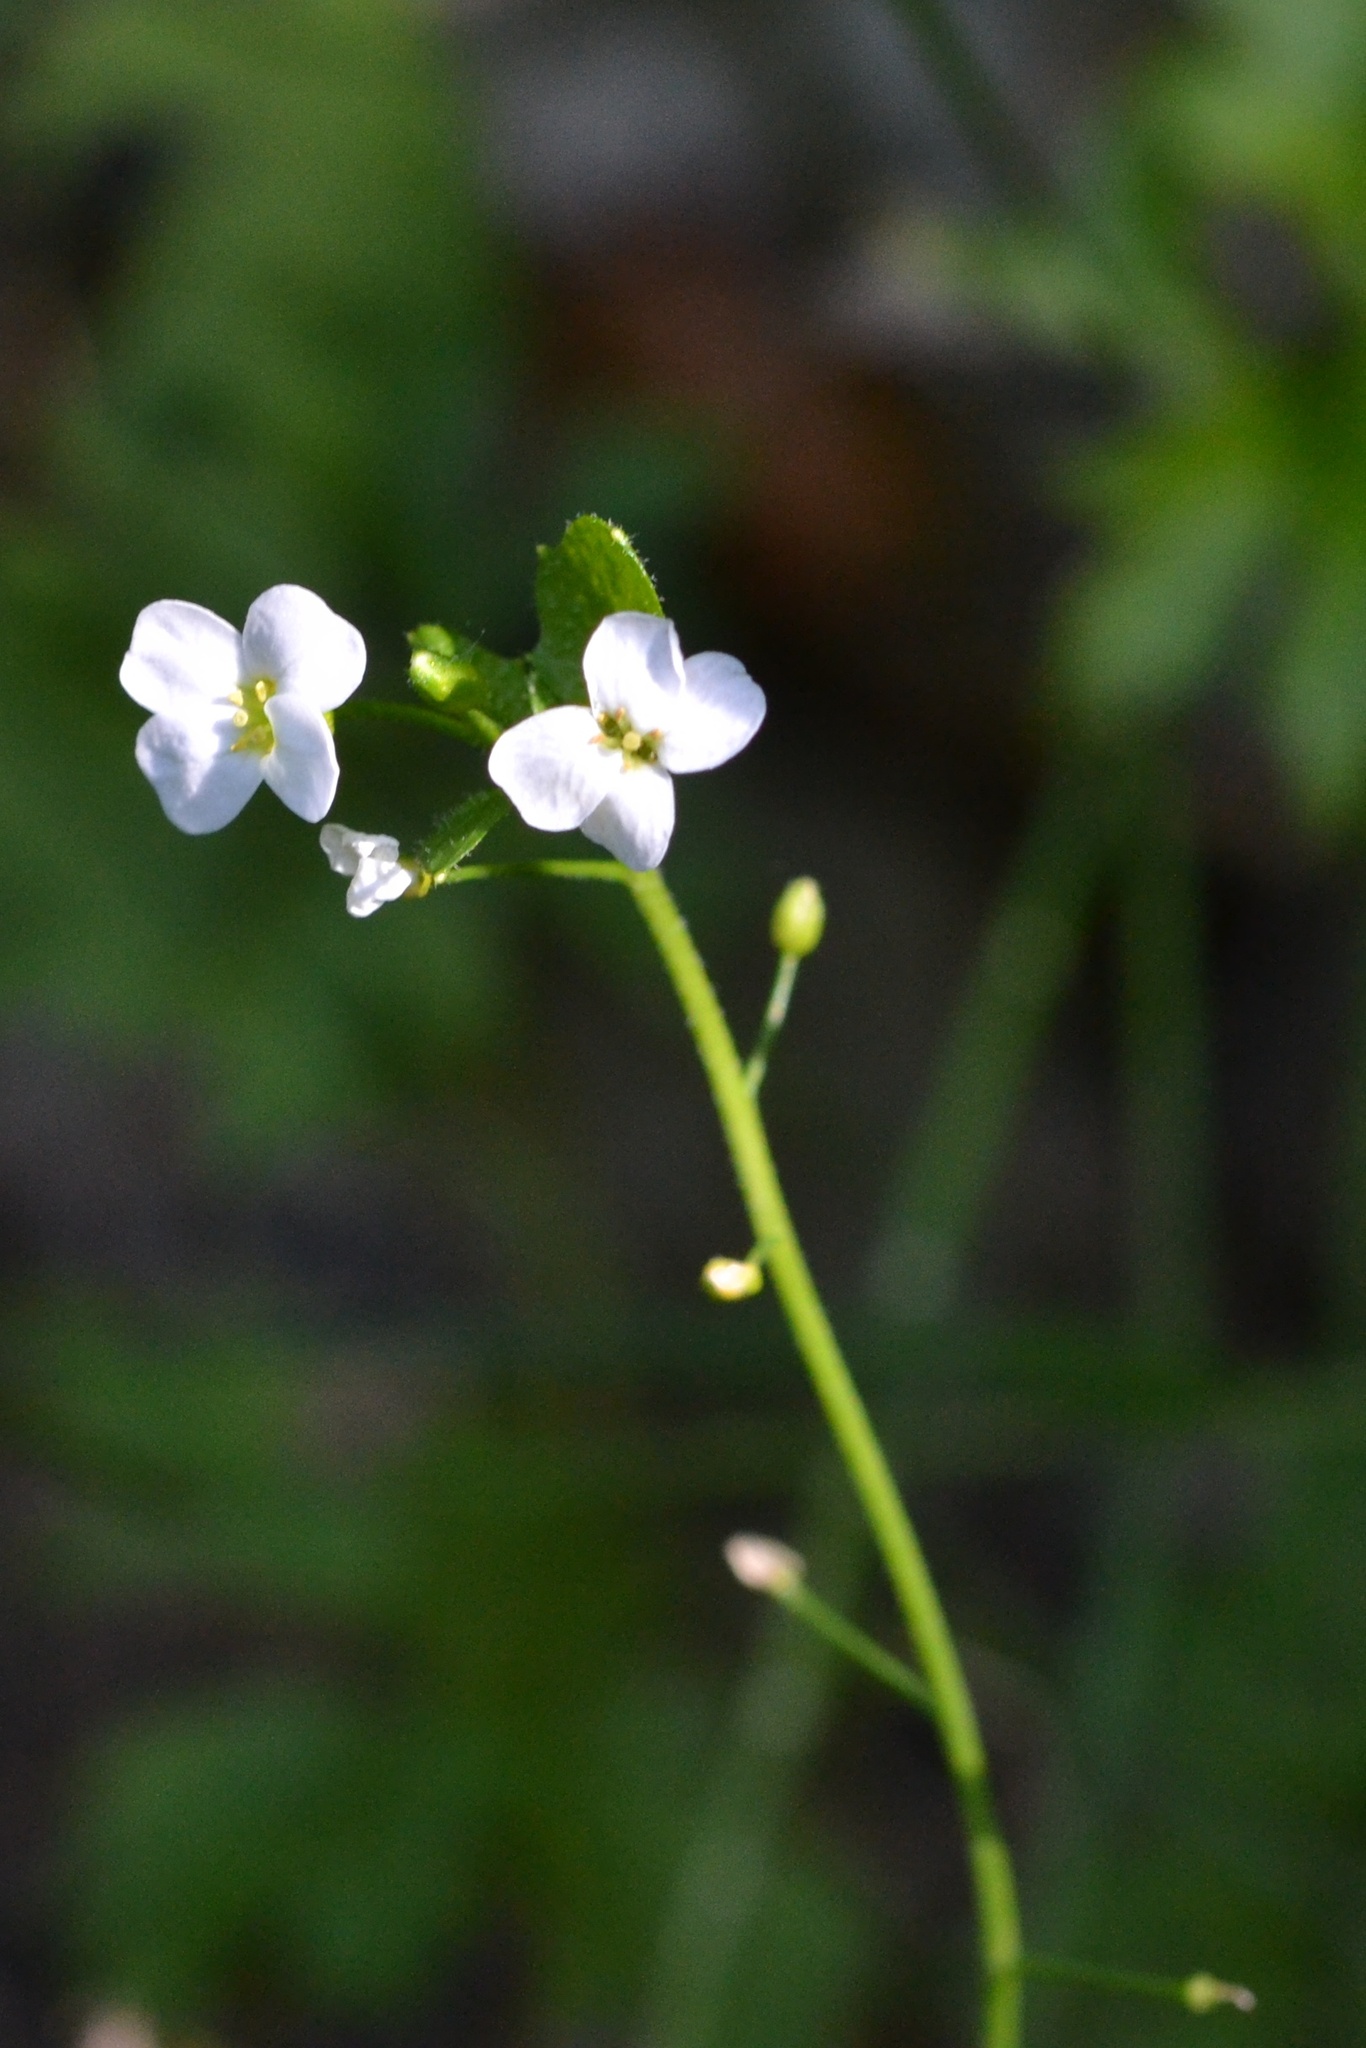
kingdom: Plantae
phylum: Tracheophyta
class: Magnoliopsida
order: Brassicales
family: Brassicaceae
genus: Arabidopsis
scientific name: Arabidopsis halleri
